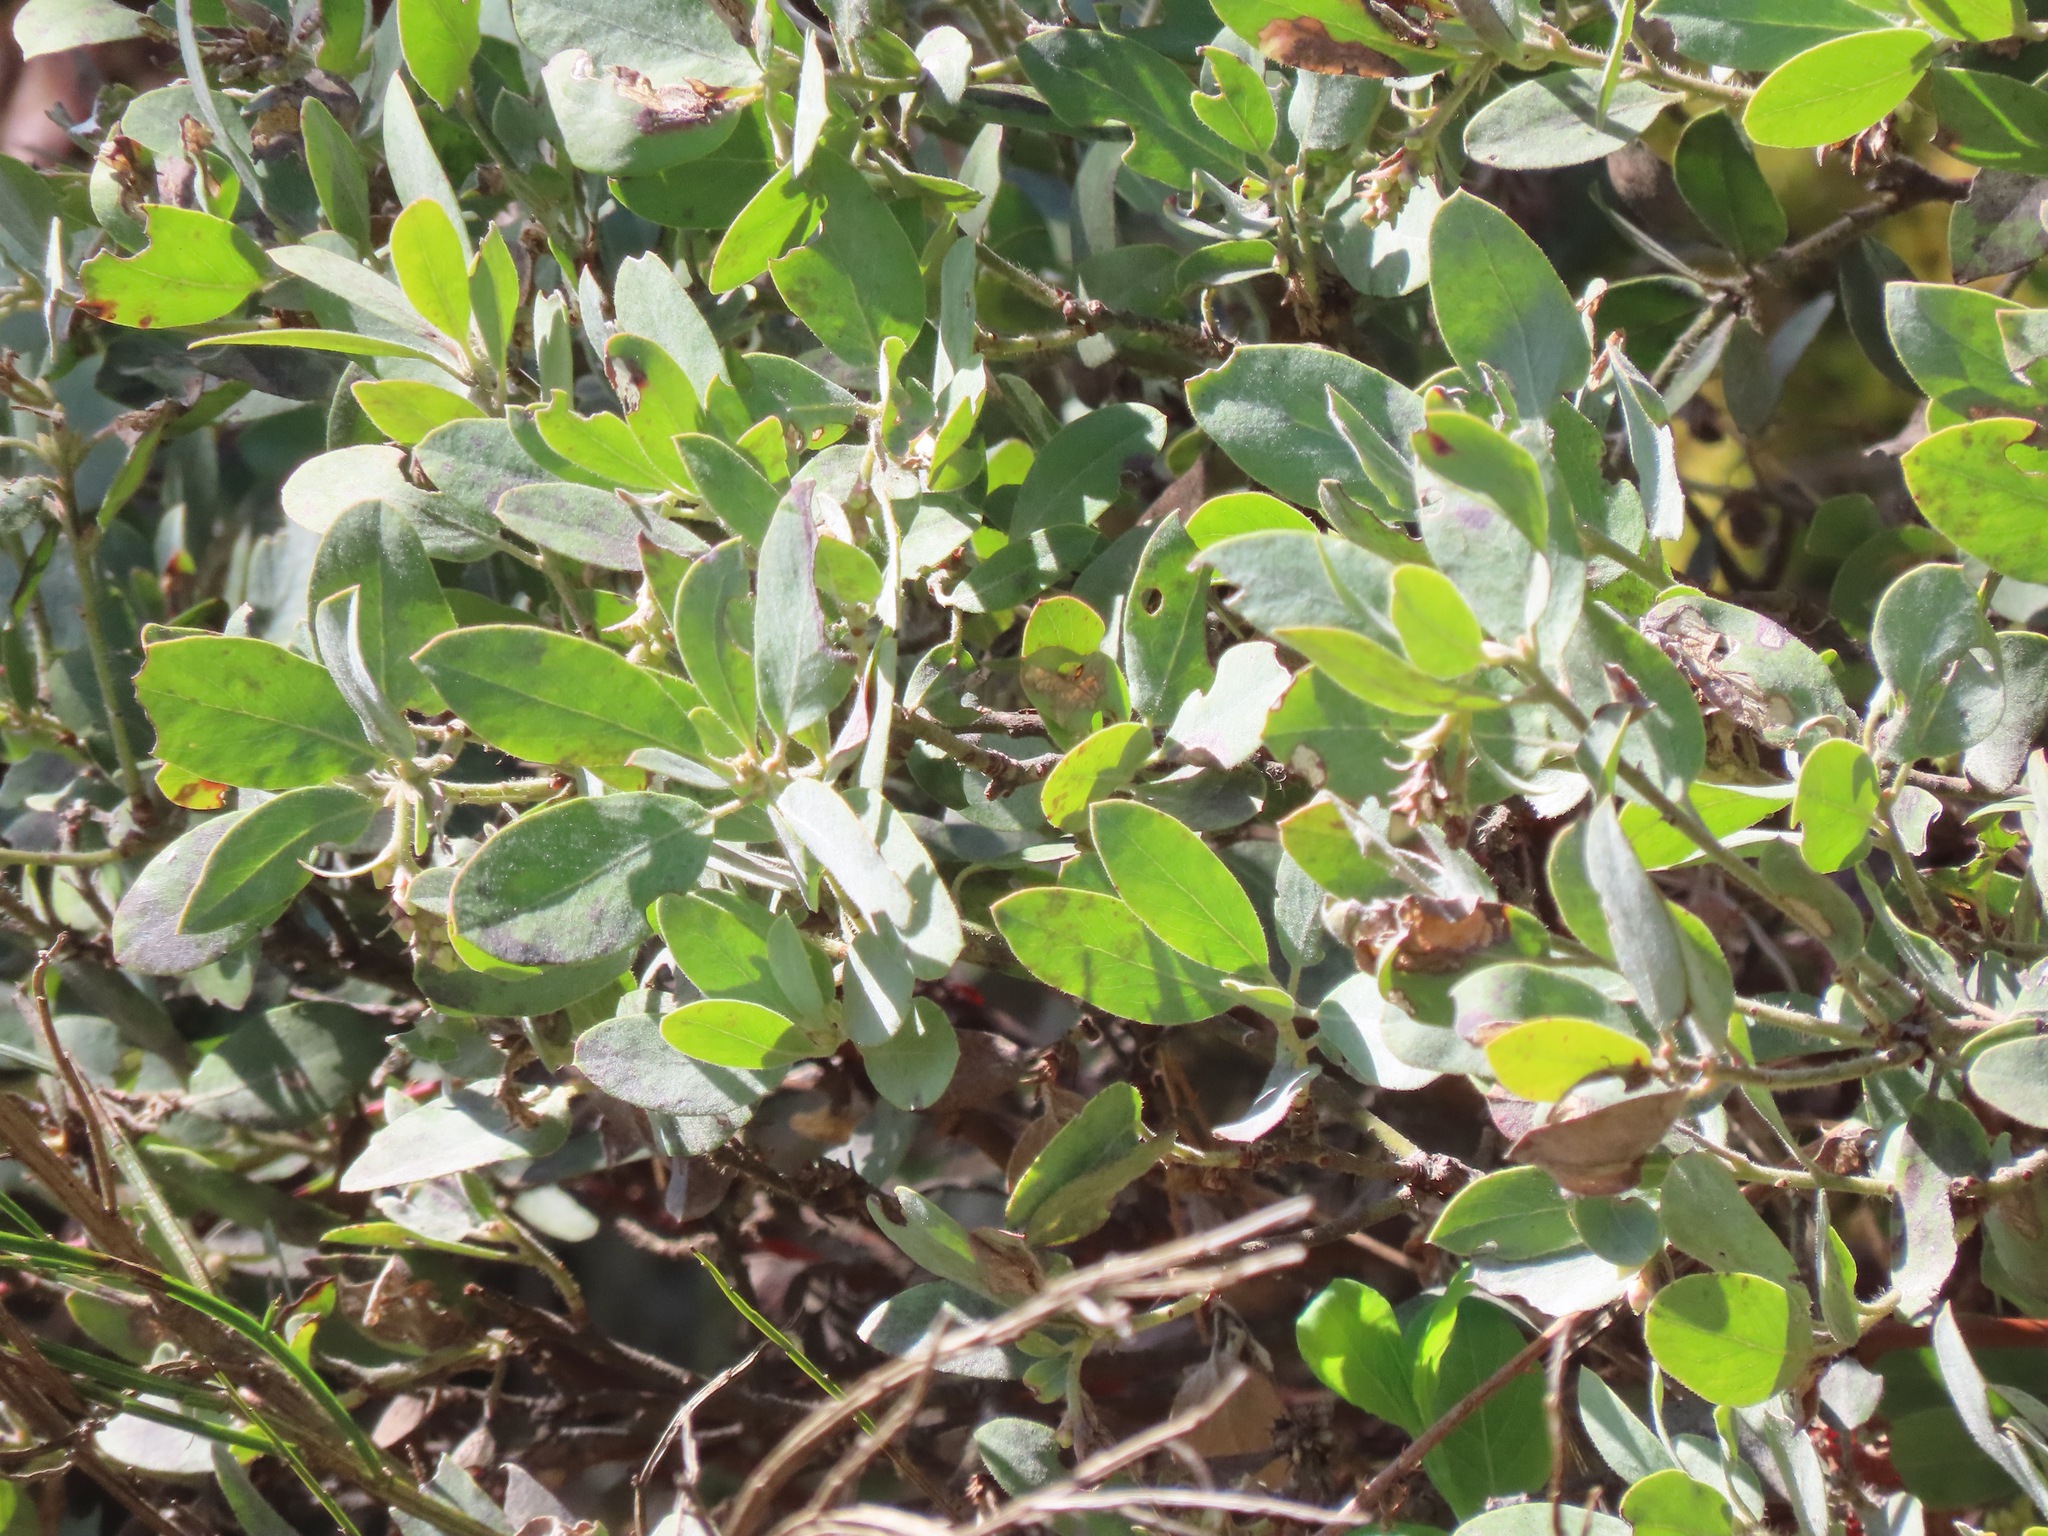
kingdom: Plantae
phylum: Tracheophyta
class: Magnoliopsida
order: Ericales
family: Ericaceae
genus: Arctostaphylos
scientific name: Arctostaphylos columbiana
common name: Bristly bearberry
